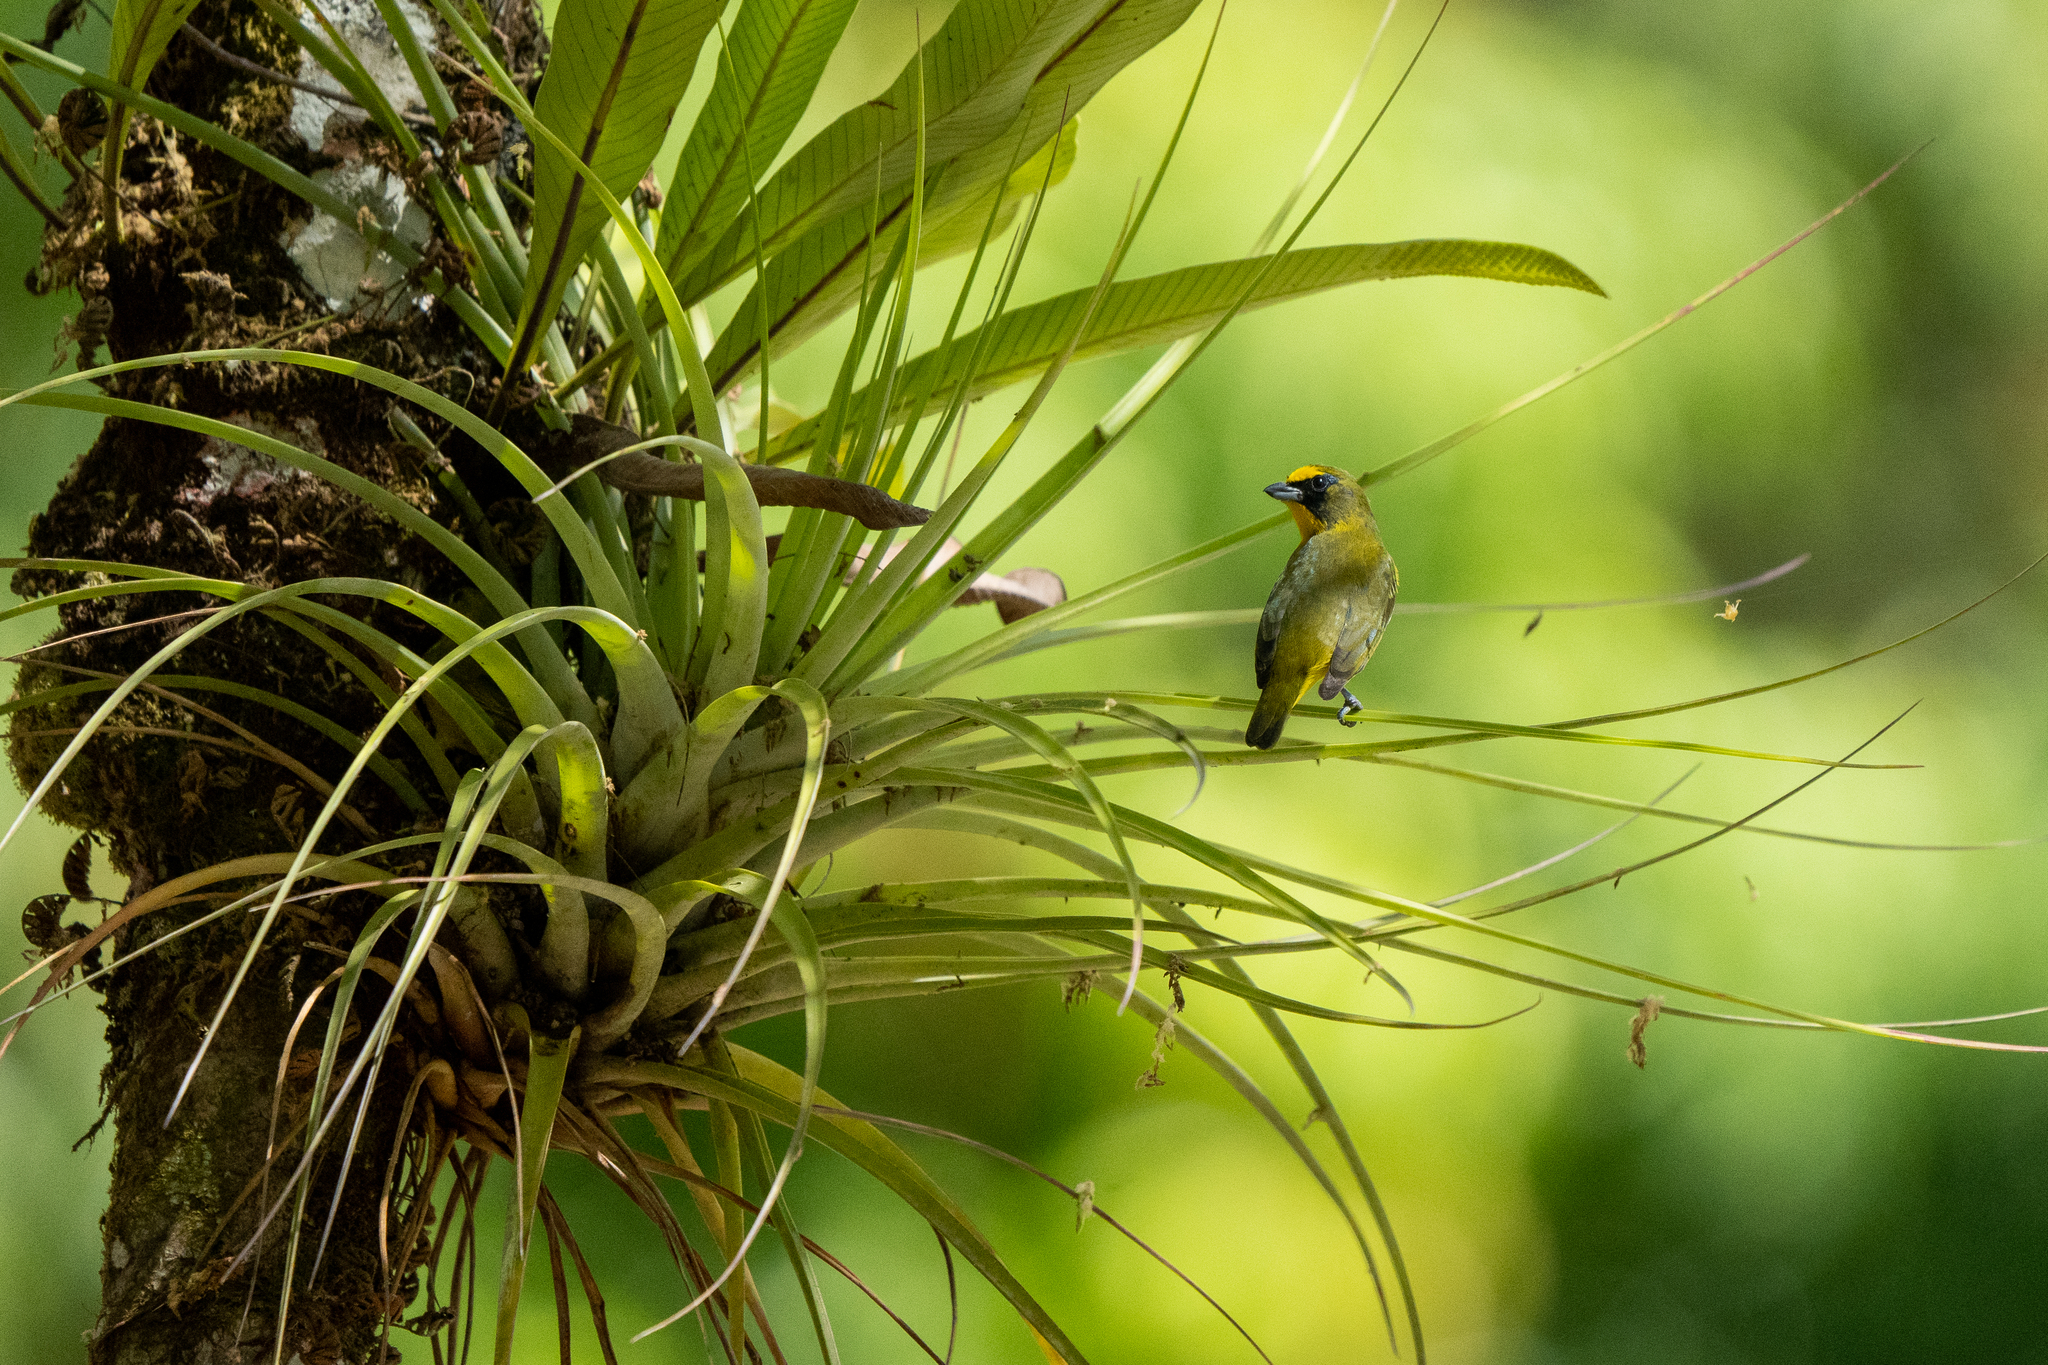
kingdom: Animalia
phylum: Chordata
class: Aves
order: Passeriformes
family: Fringillidae
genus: Euphonia
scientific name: Euphonia laniirostris
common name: Thick-billed euphonia
